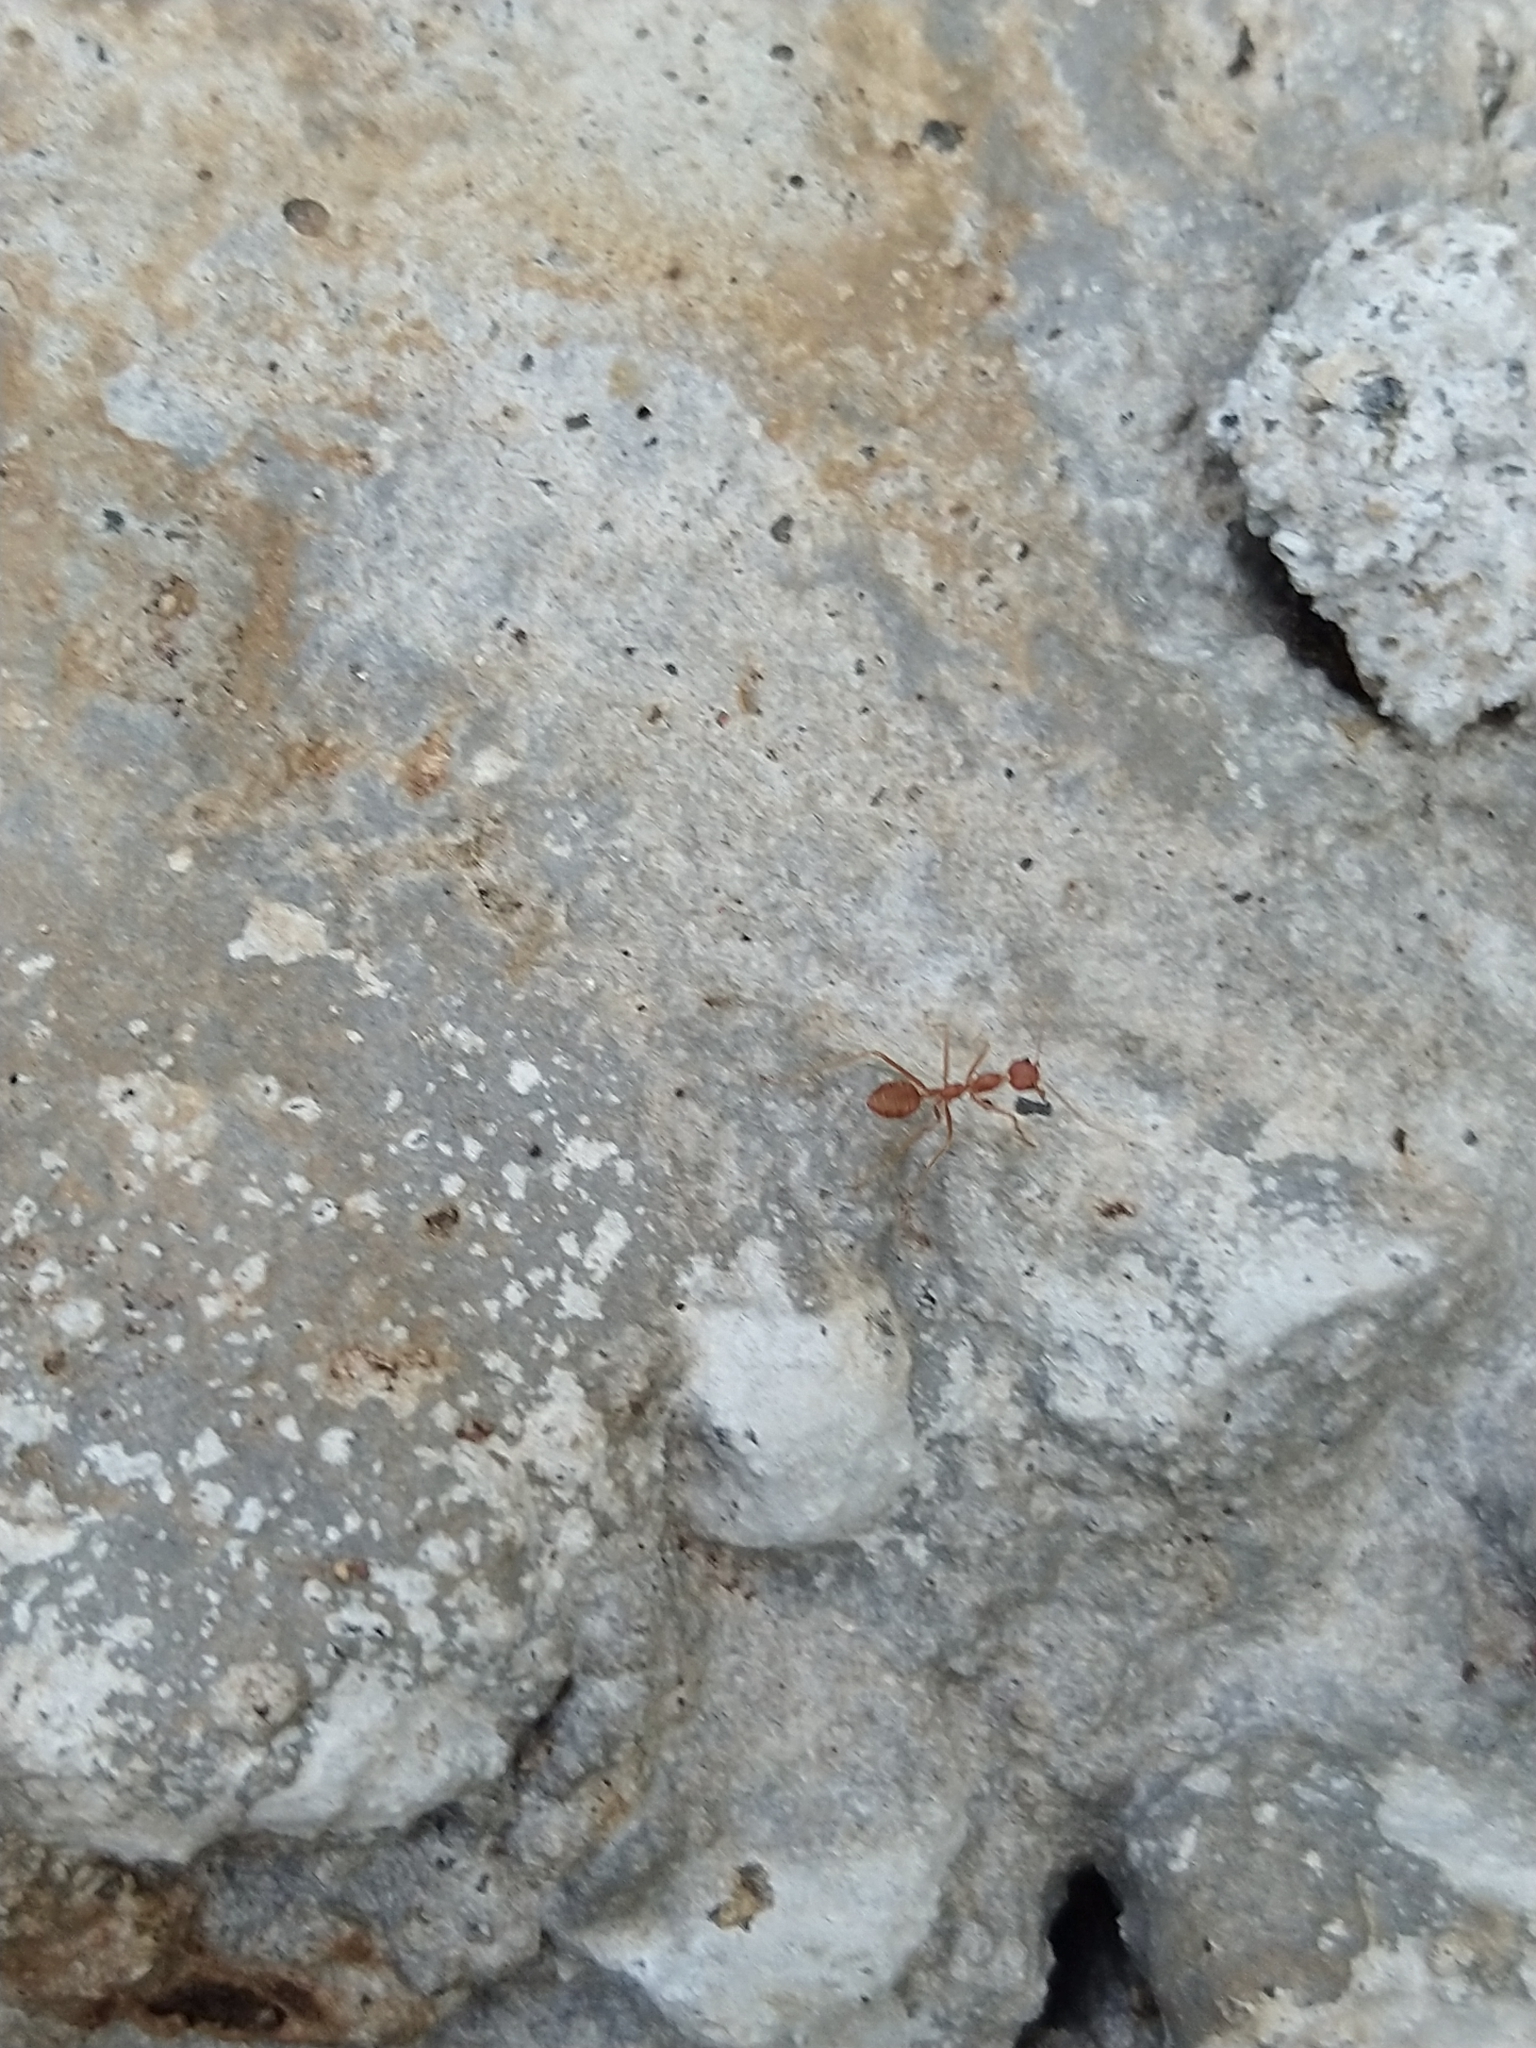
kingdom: Animalia
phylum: Arthropoda
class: Insecta
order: Hymenoptera
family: Formicidae
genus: Oecophylla
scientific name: Oecophylla smaragdina
